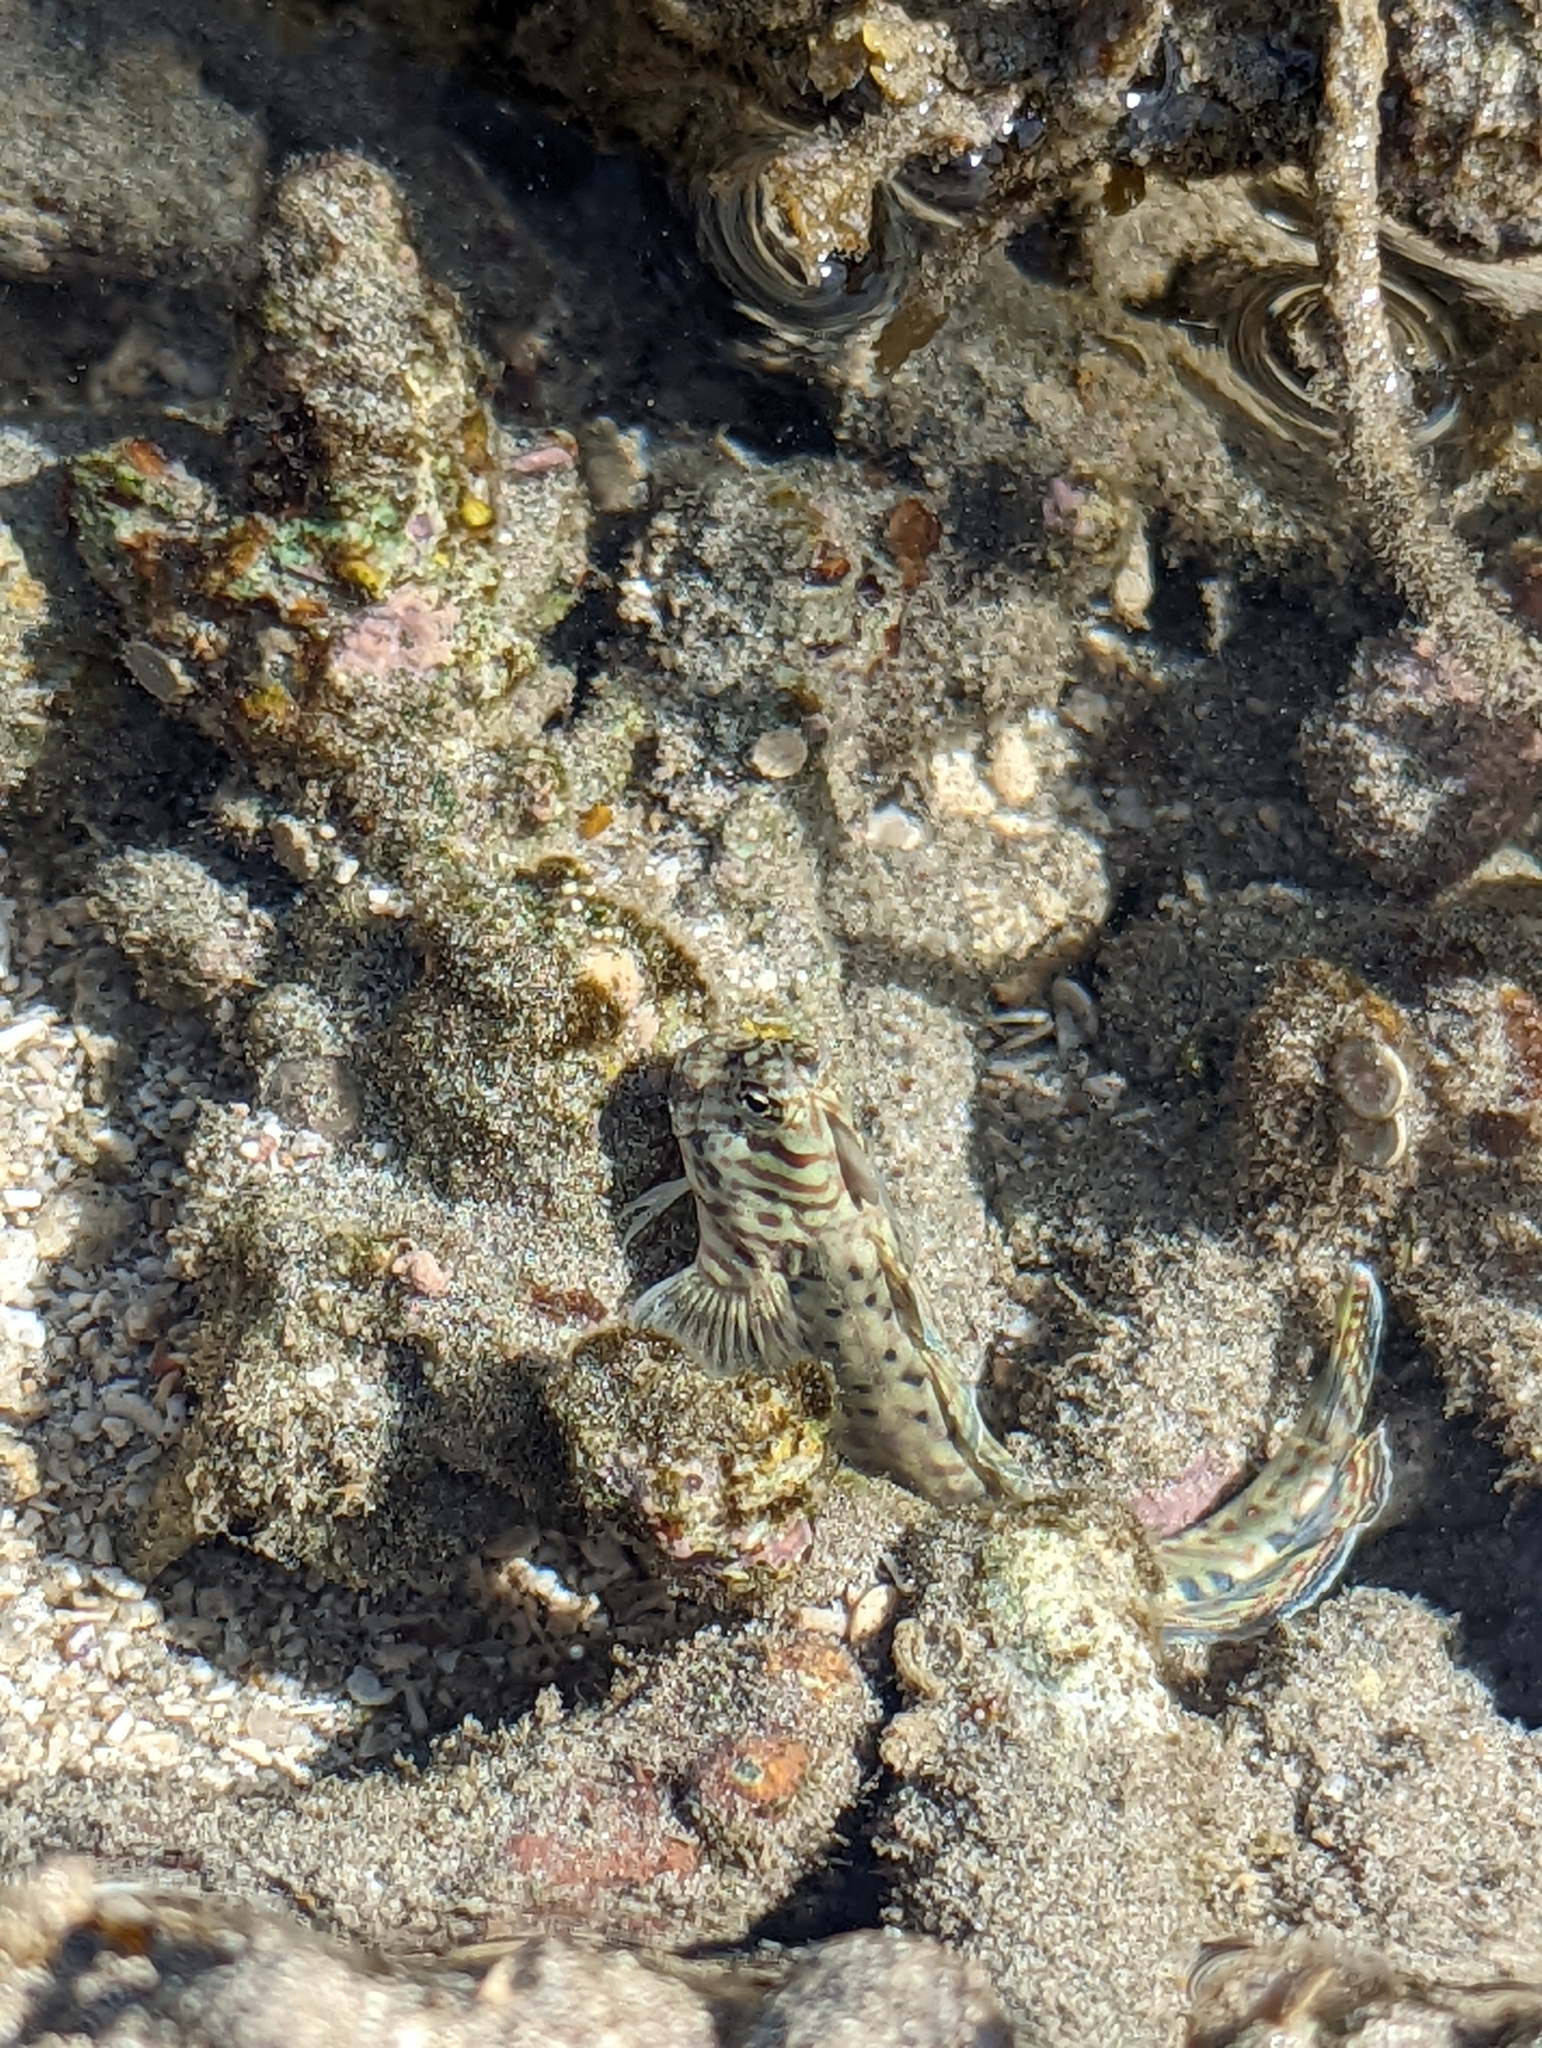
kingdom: Animalia
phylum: Chordata
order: Perciformes
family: Blenniidae
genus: Istiblennius
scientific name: Istiblennius dussumieri
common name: Dussumier's rockskipper
